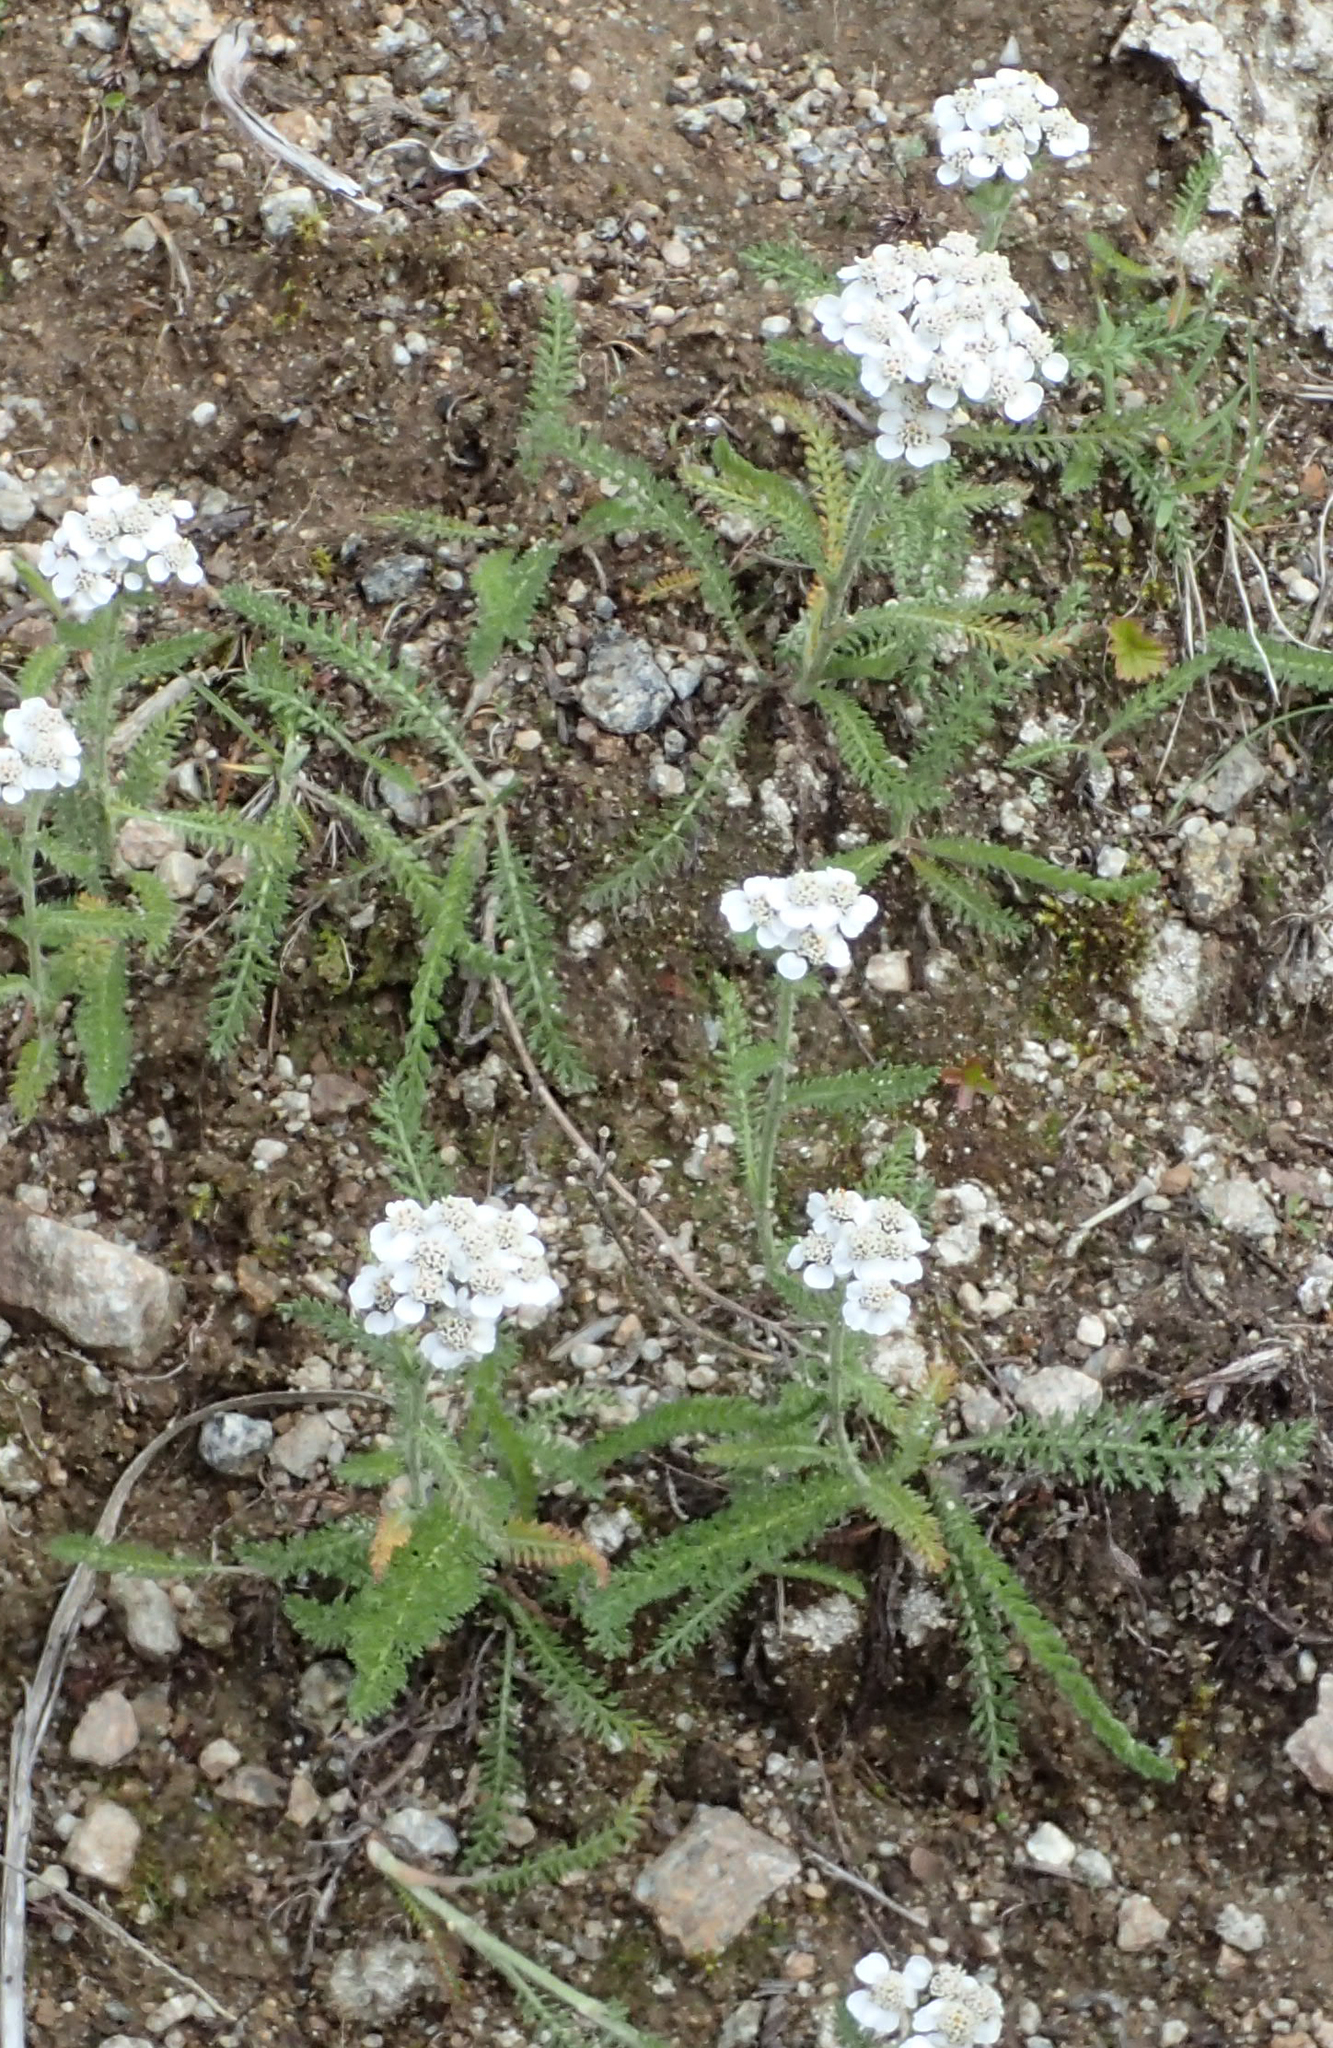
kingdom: Plantae
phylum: Tracheophyta
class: Magnoliopsida
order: Asterales
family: Asteraceae
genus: Achillea
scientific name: Achillea millefolium
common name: Yarrow
